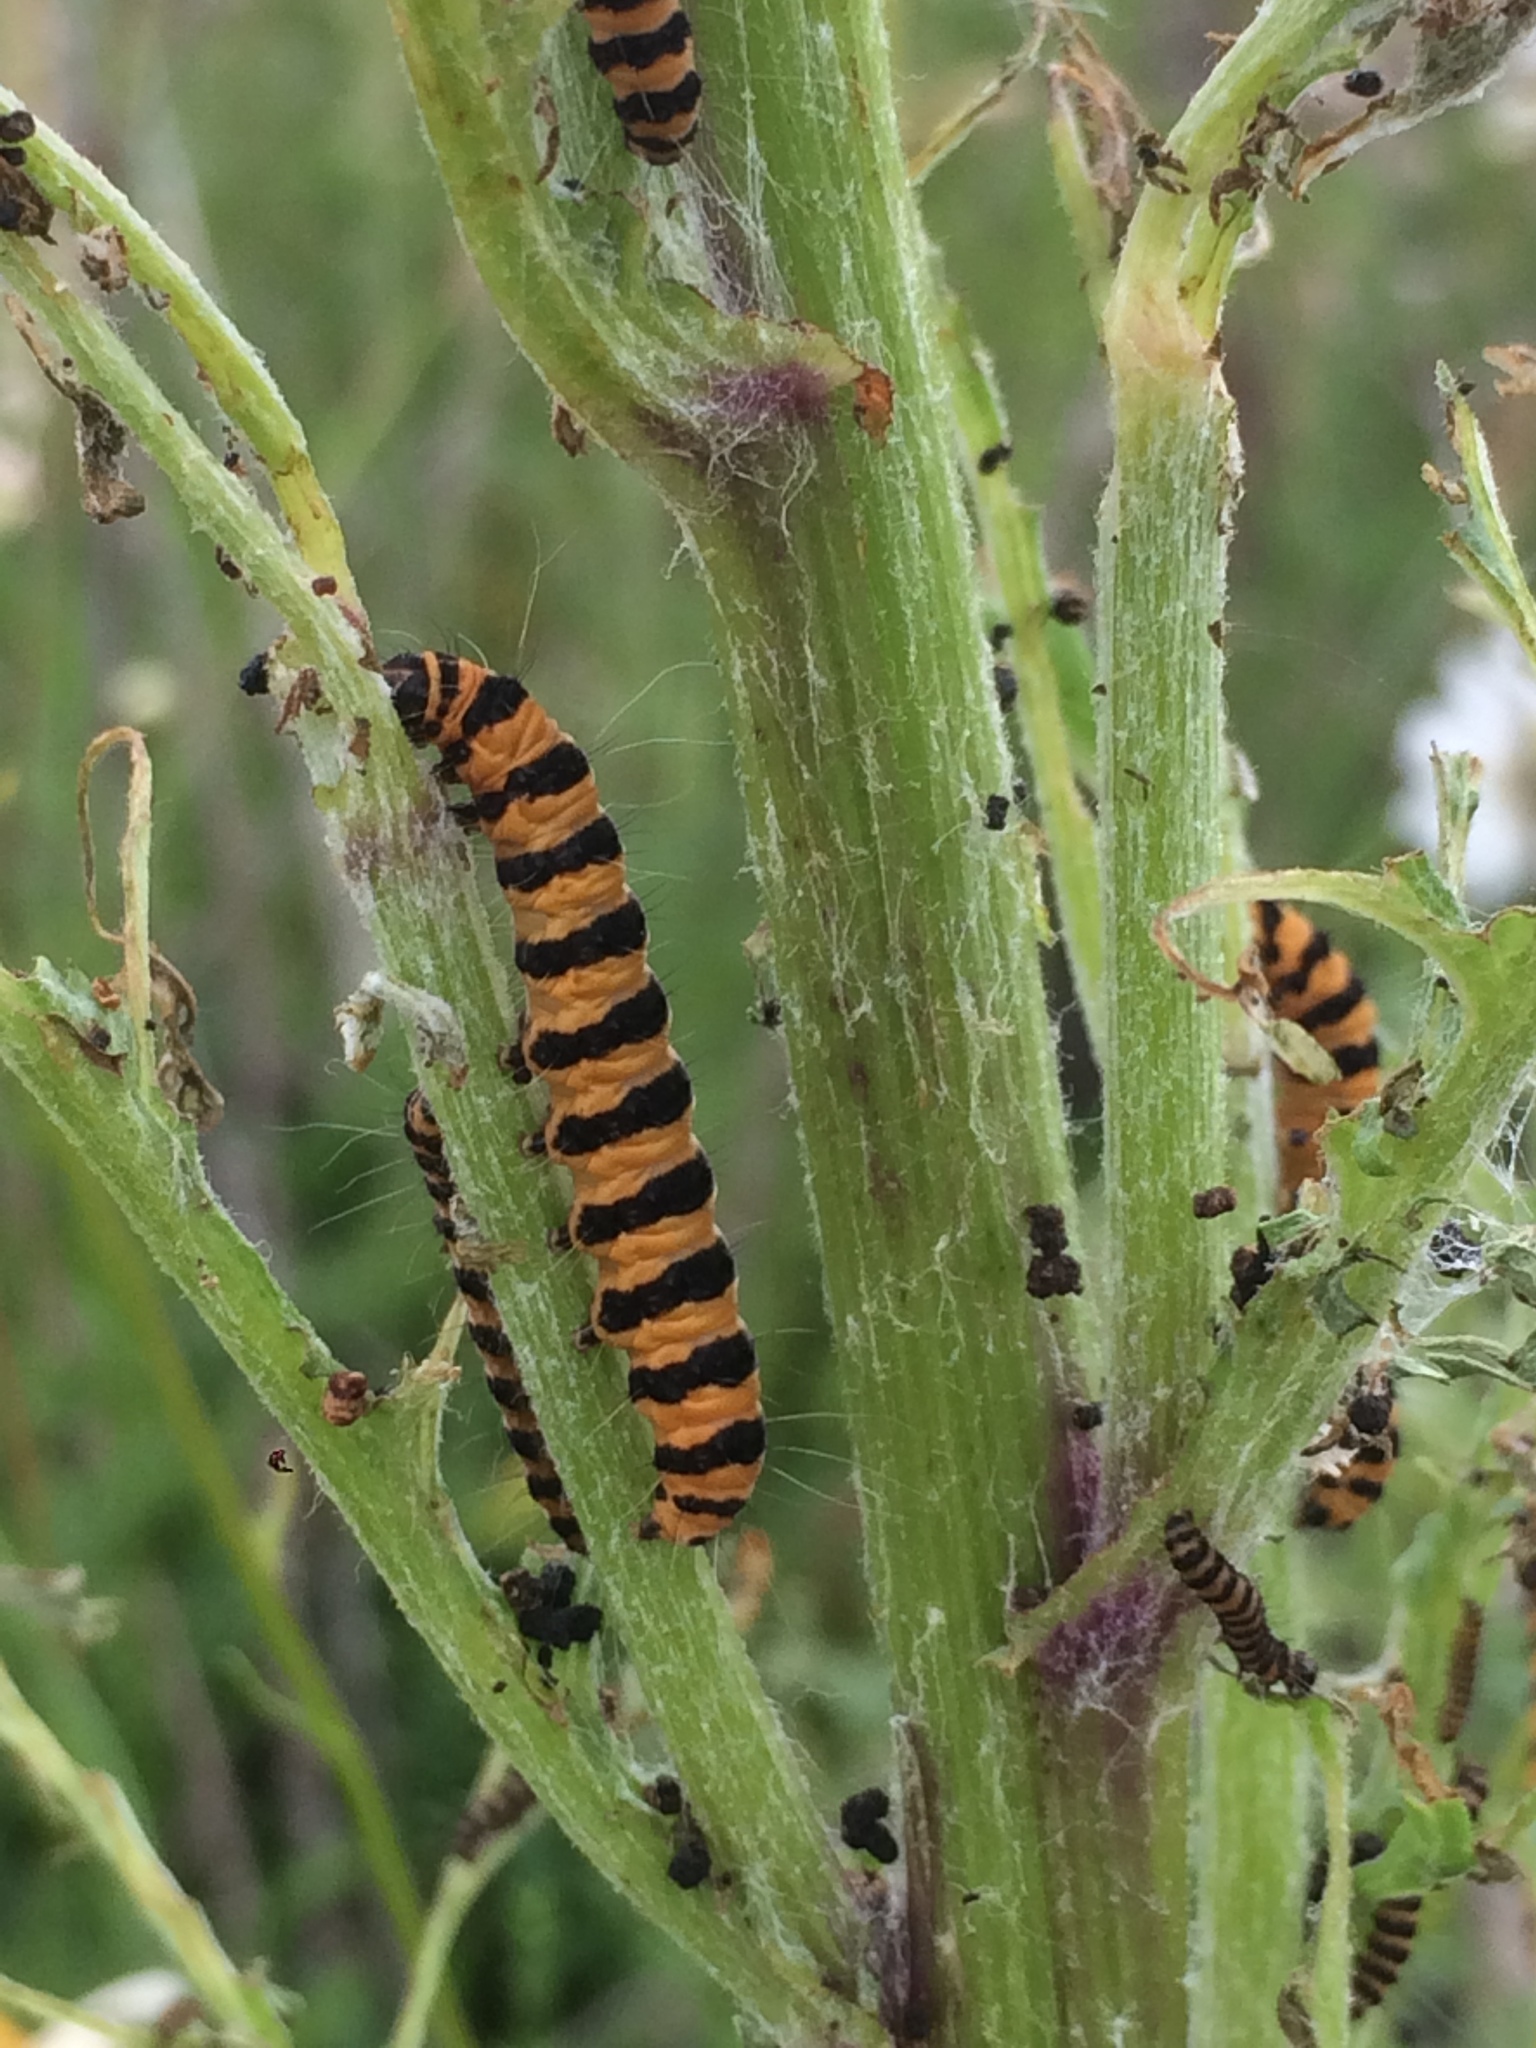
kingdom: Animalia
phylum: Arthropoda
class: Insecta
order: Lepidoptera
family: Erebidae
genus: Tyria
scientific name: Tyria jacobaeae
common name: Cinnabar
